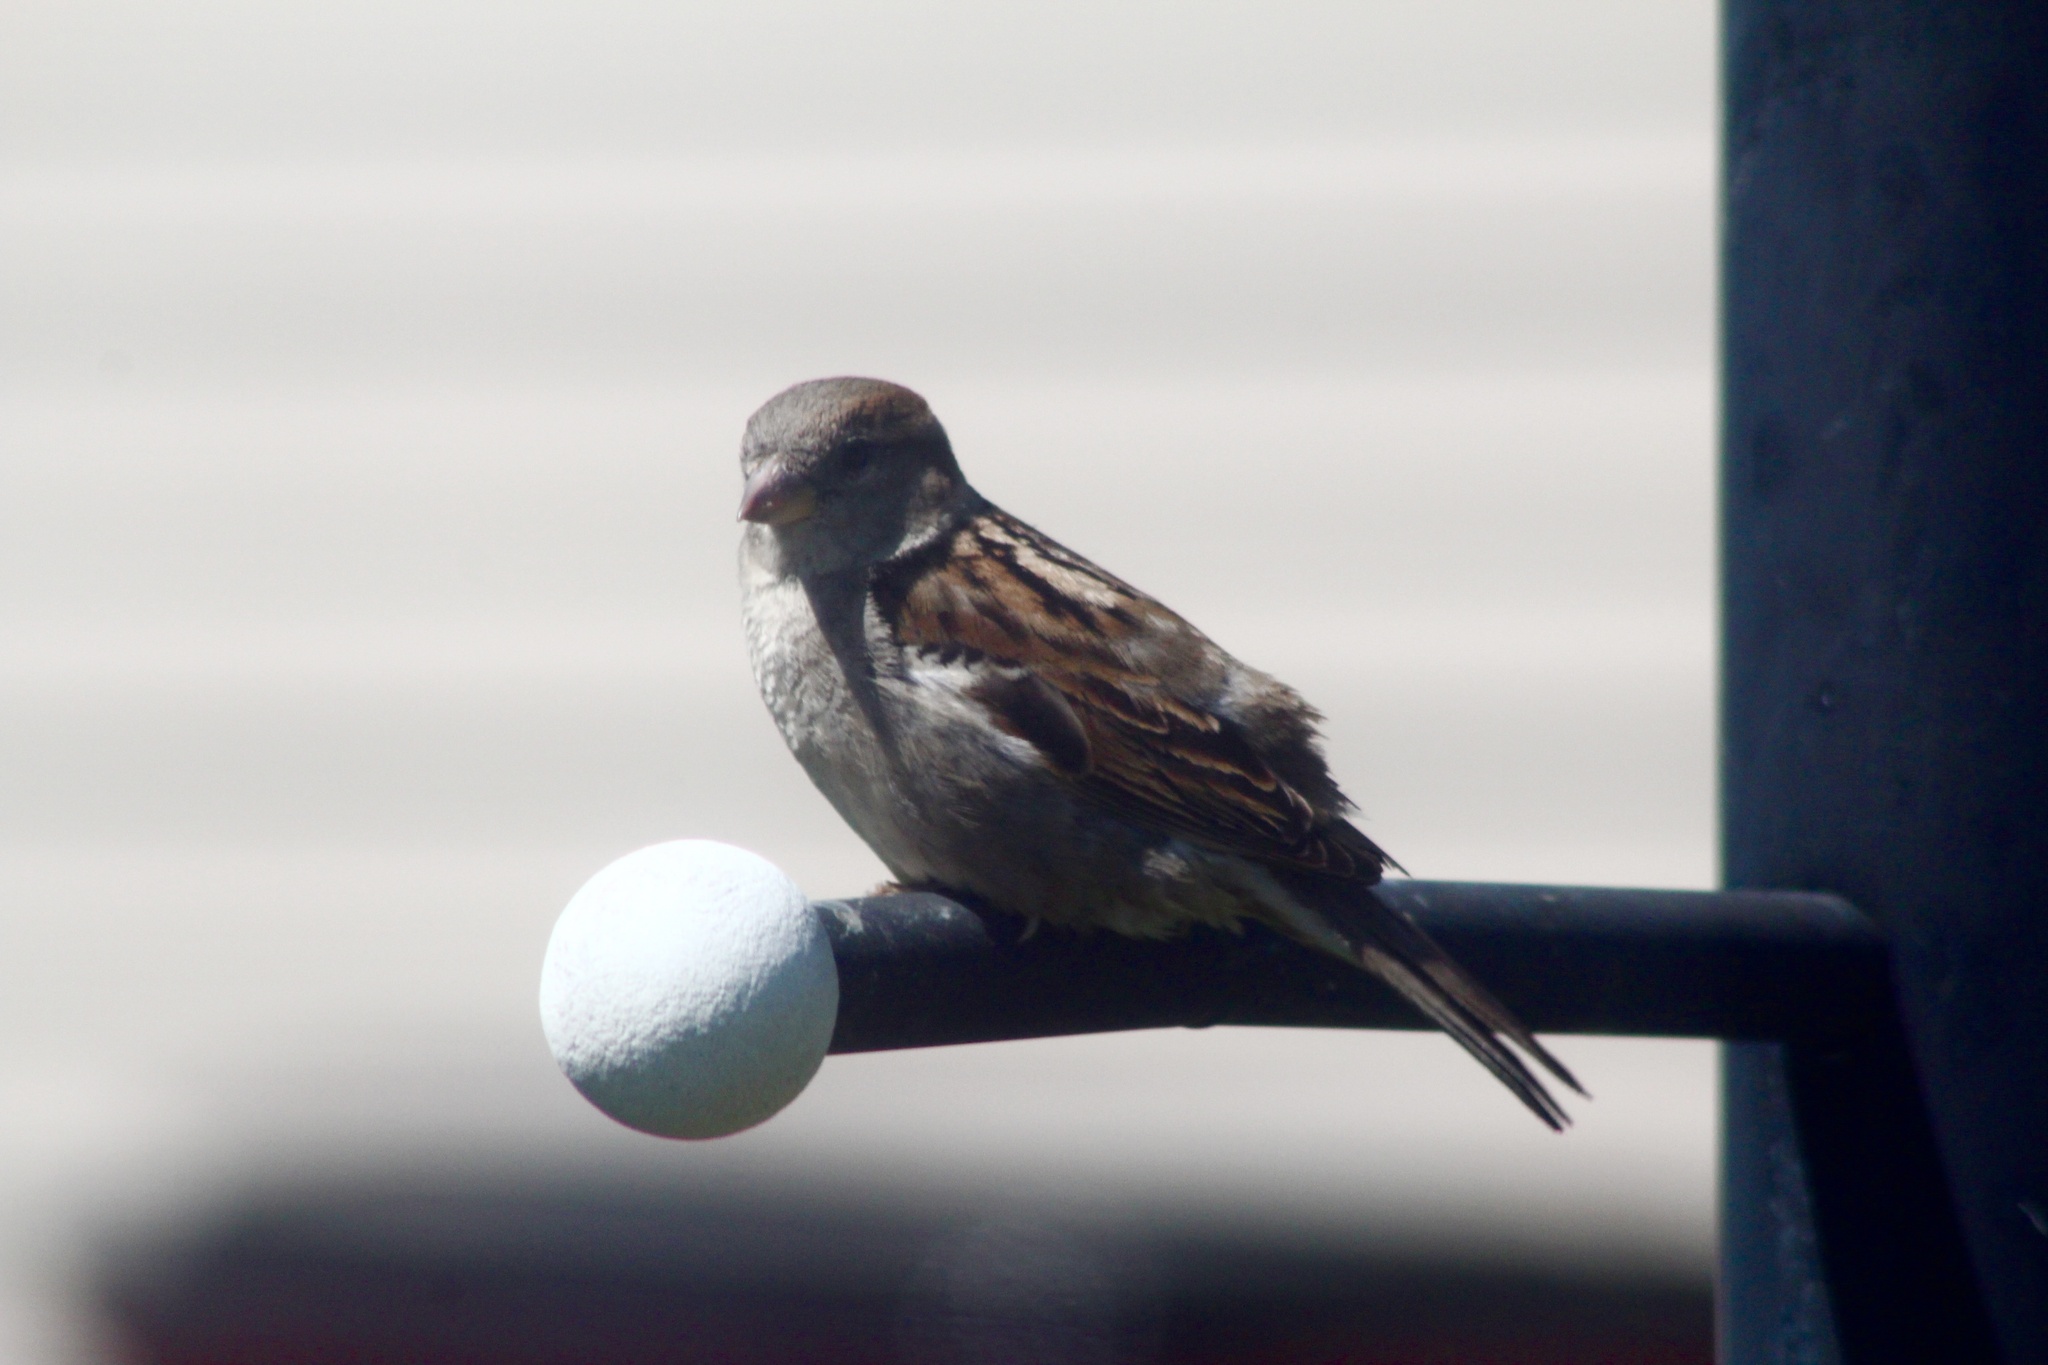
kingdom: Animalia
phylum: Chordata
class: Aves
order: Passeriformes
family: Passeridae
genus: Passer
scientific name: Passer domesticus
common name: House sparrow
